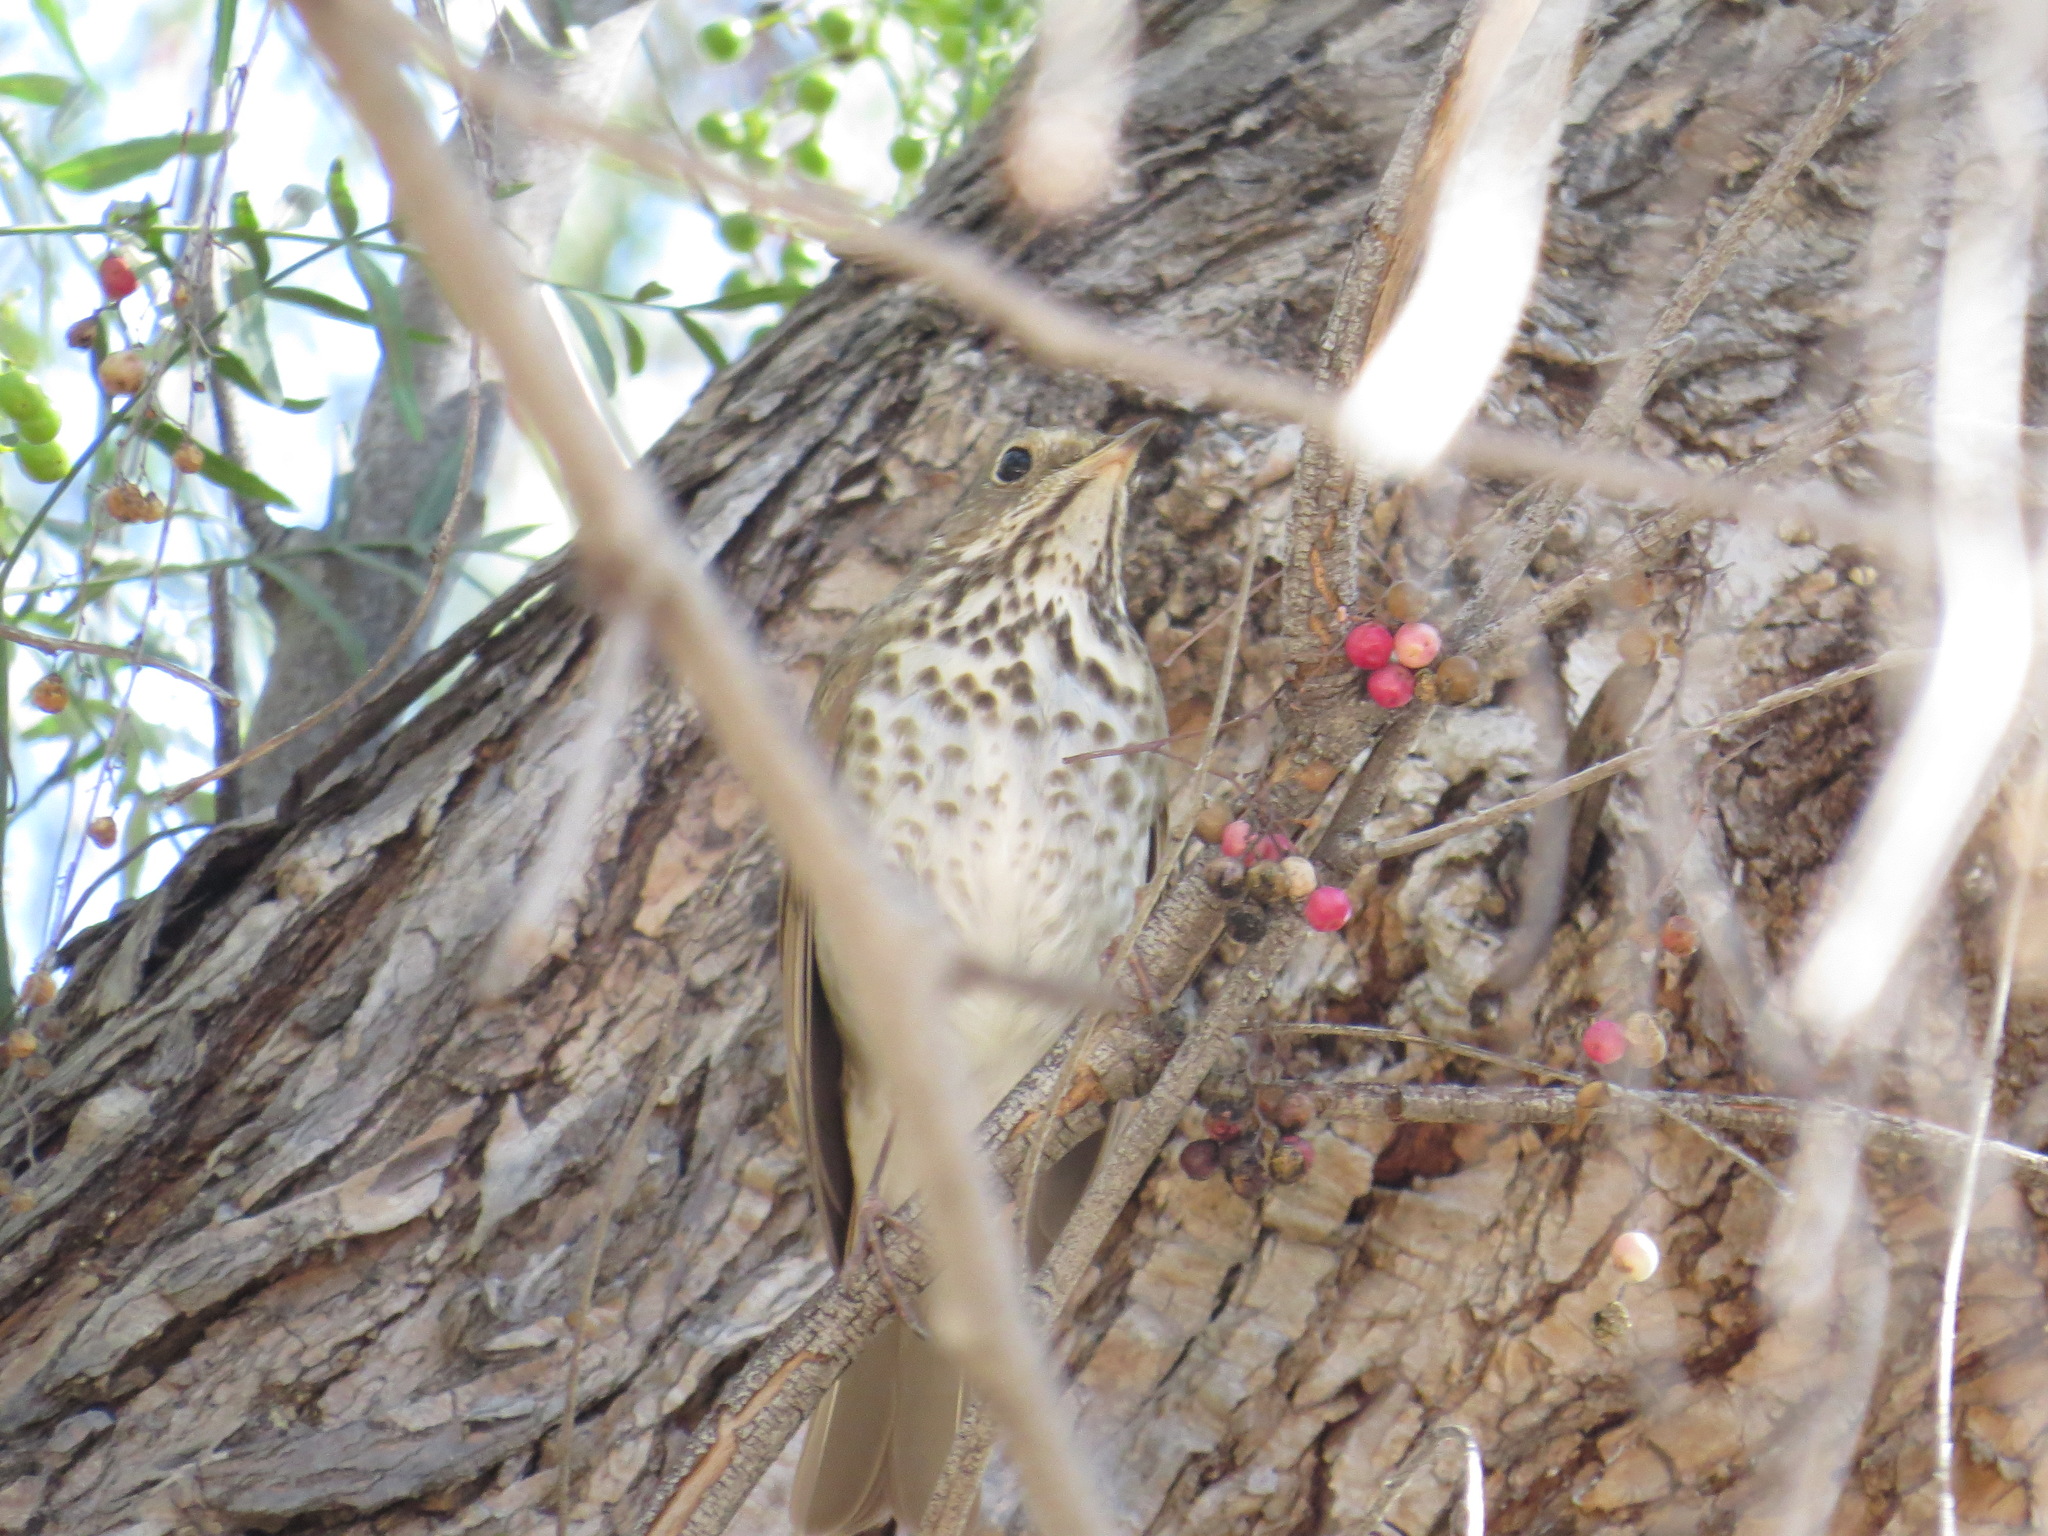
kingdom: Animalia
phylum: Chordata
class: Aves
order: Passeriformes
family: Turdidae
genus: Catharus
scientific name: Catharus guttatus
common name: Hermit thrush
